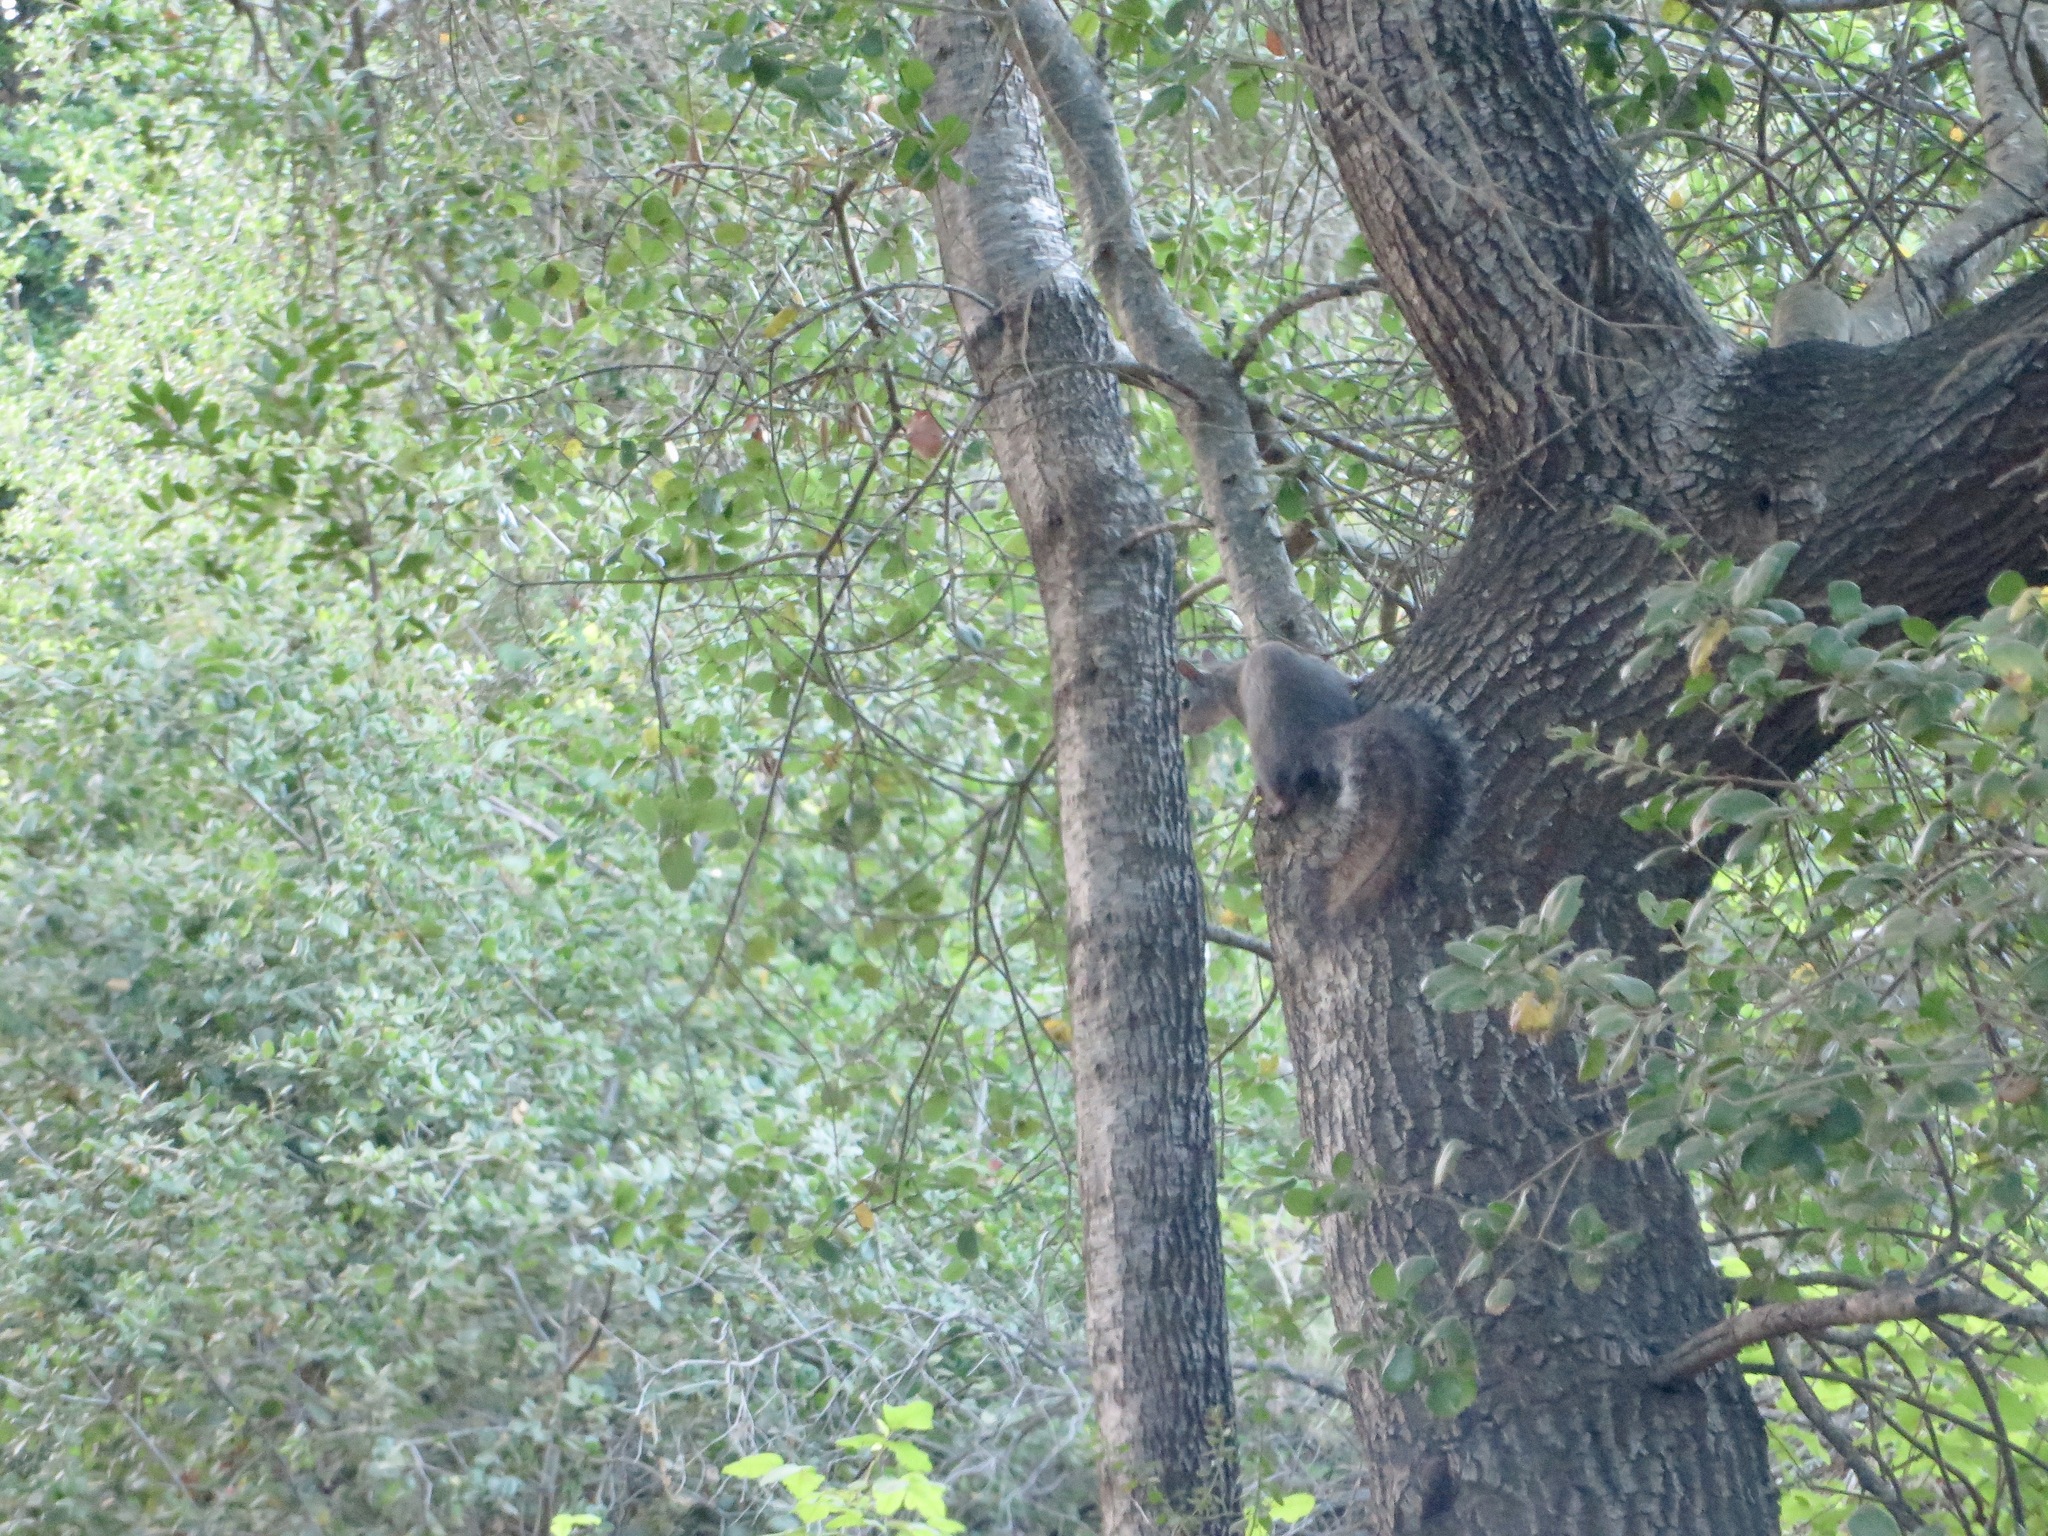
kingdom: Animalia
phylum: Chordata
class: Mammalia
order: Rodentia
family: Sciuridae
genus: Sciurus
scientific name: Sciurus griseus
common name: Western gray squirrel
